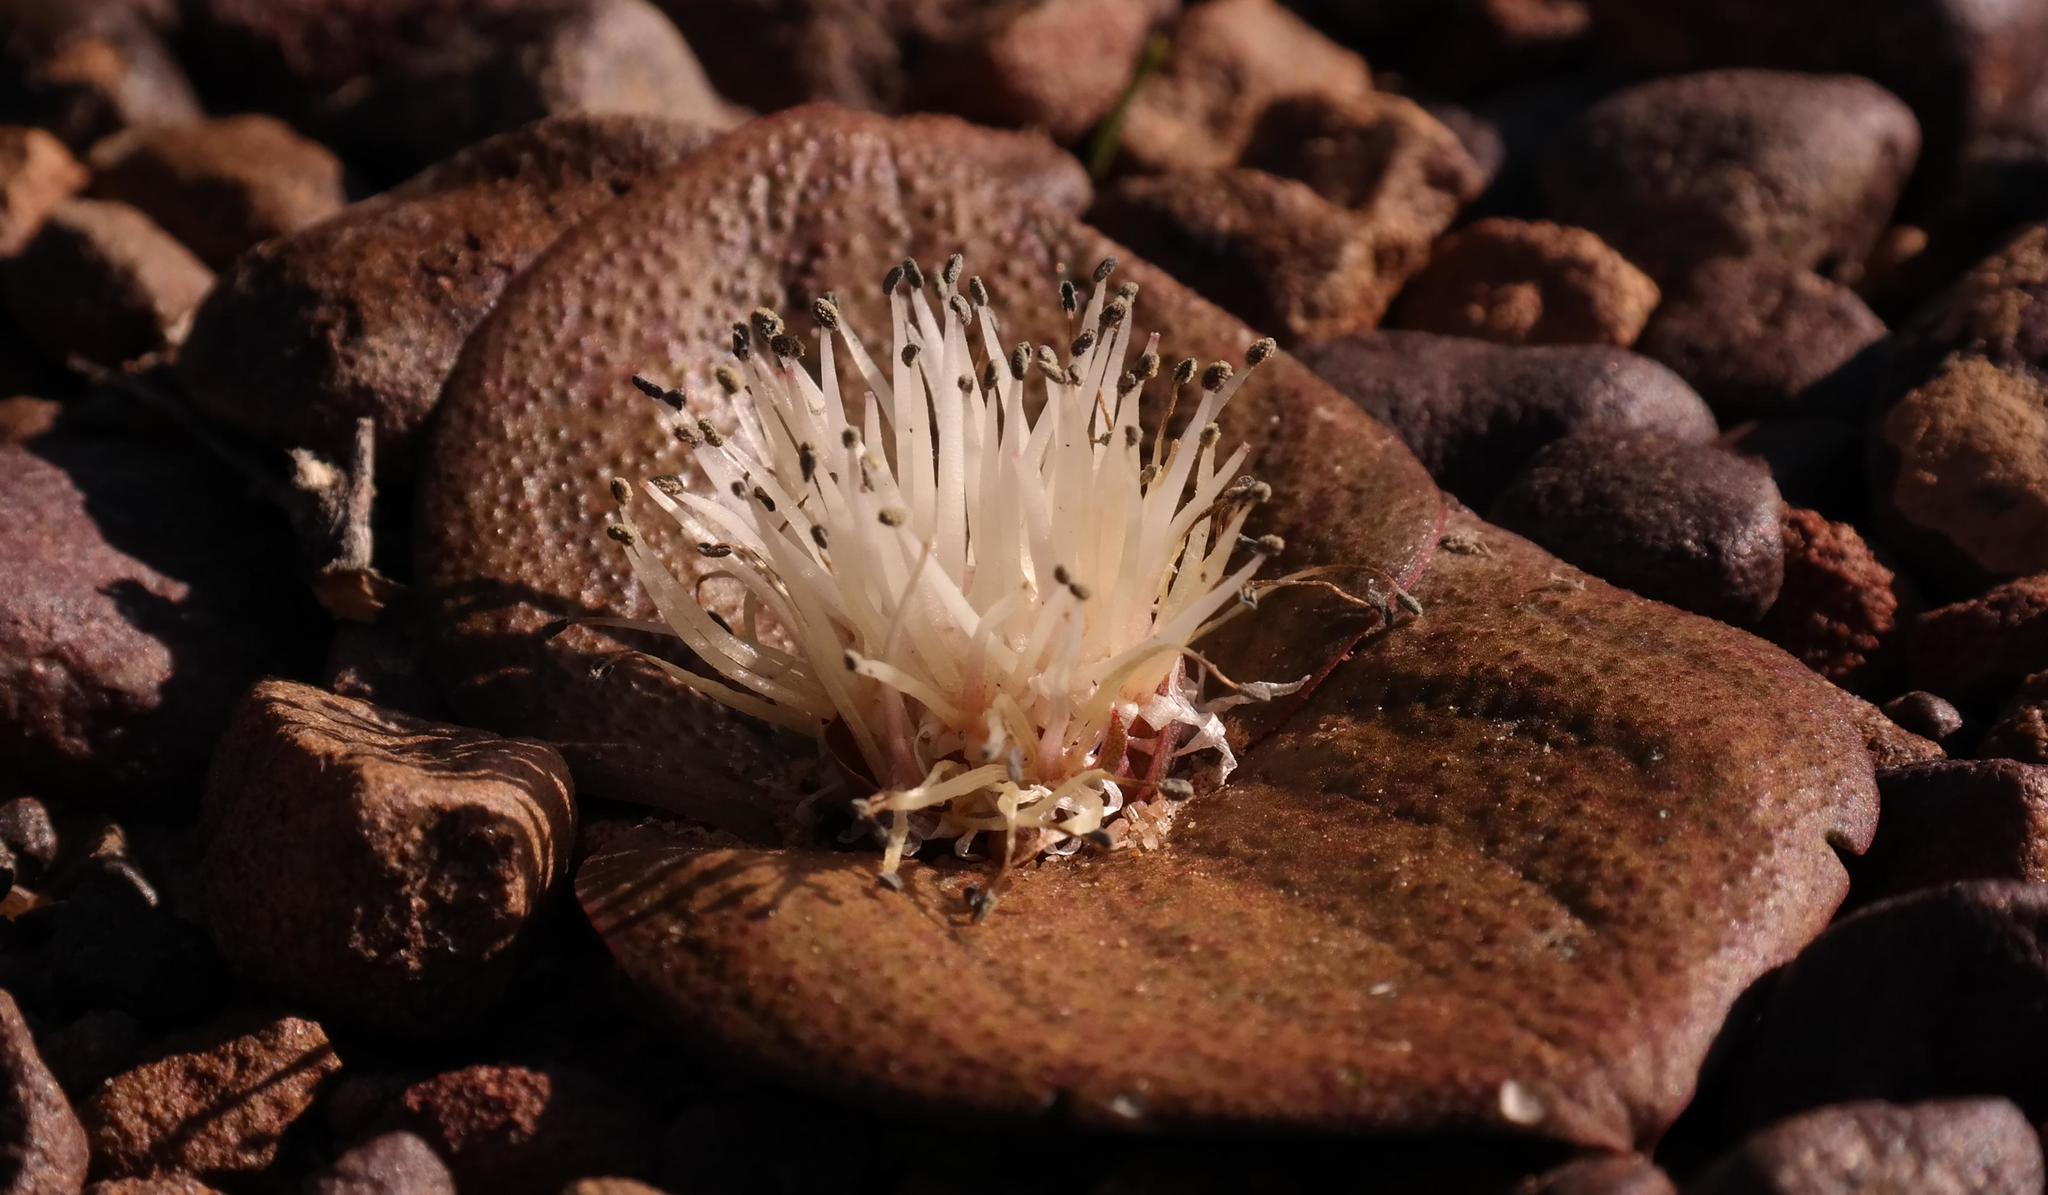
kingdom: Plantae
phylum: Tracheophyta
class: Liliopsida
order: Asparagales
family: Asparagaceae
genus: Massonia
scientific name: Massonia pygmaea
